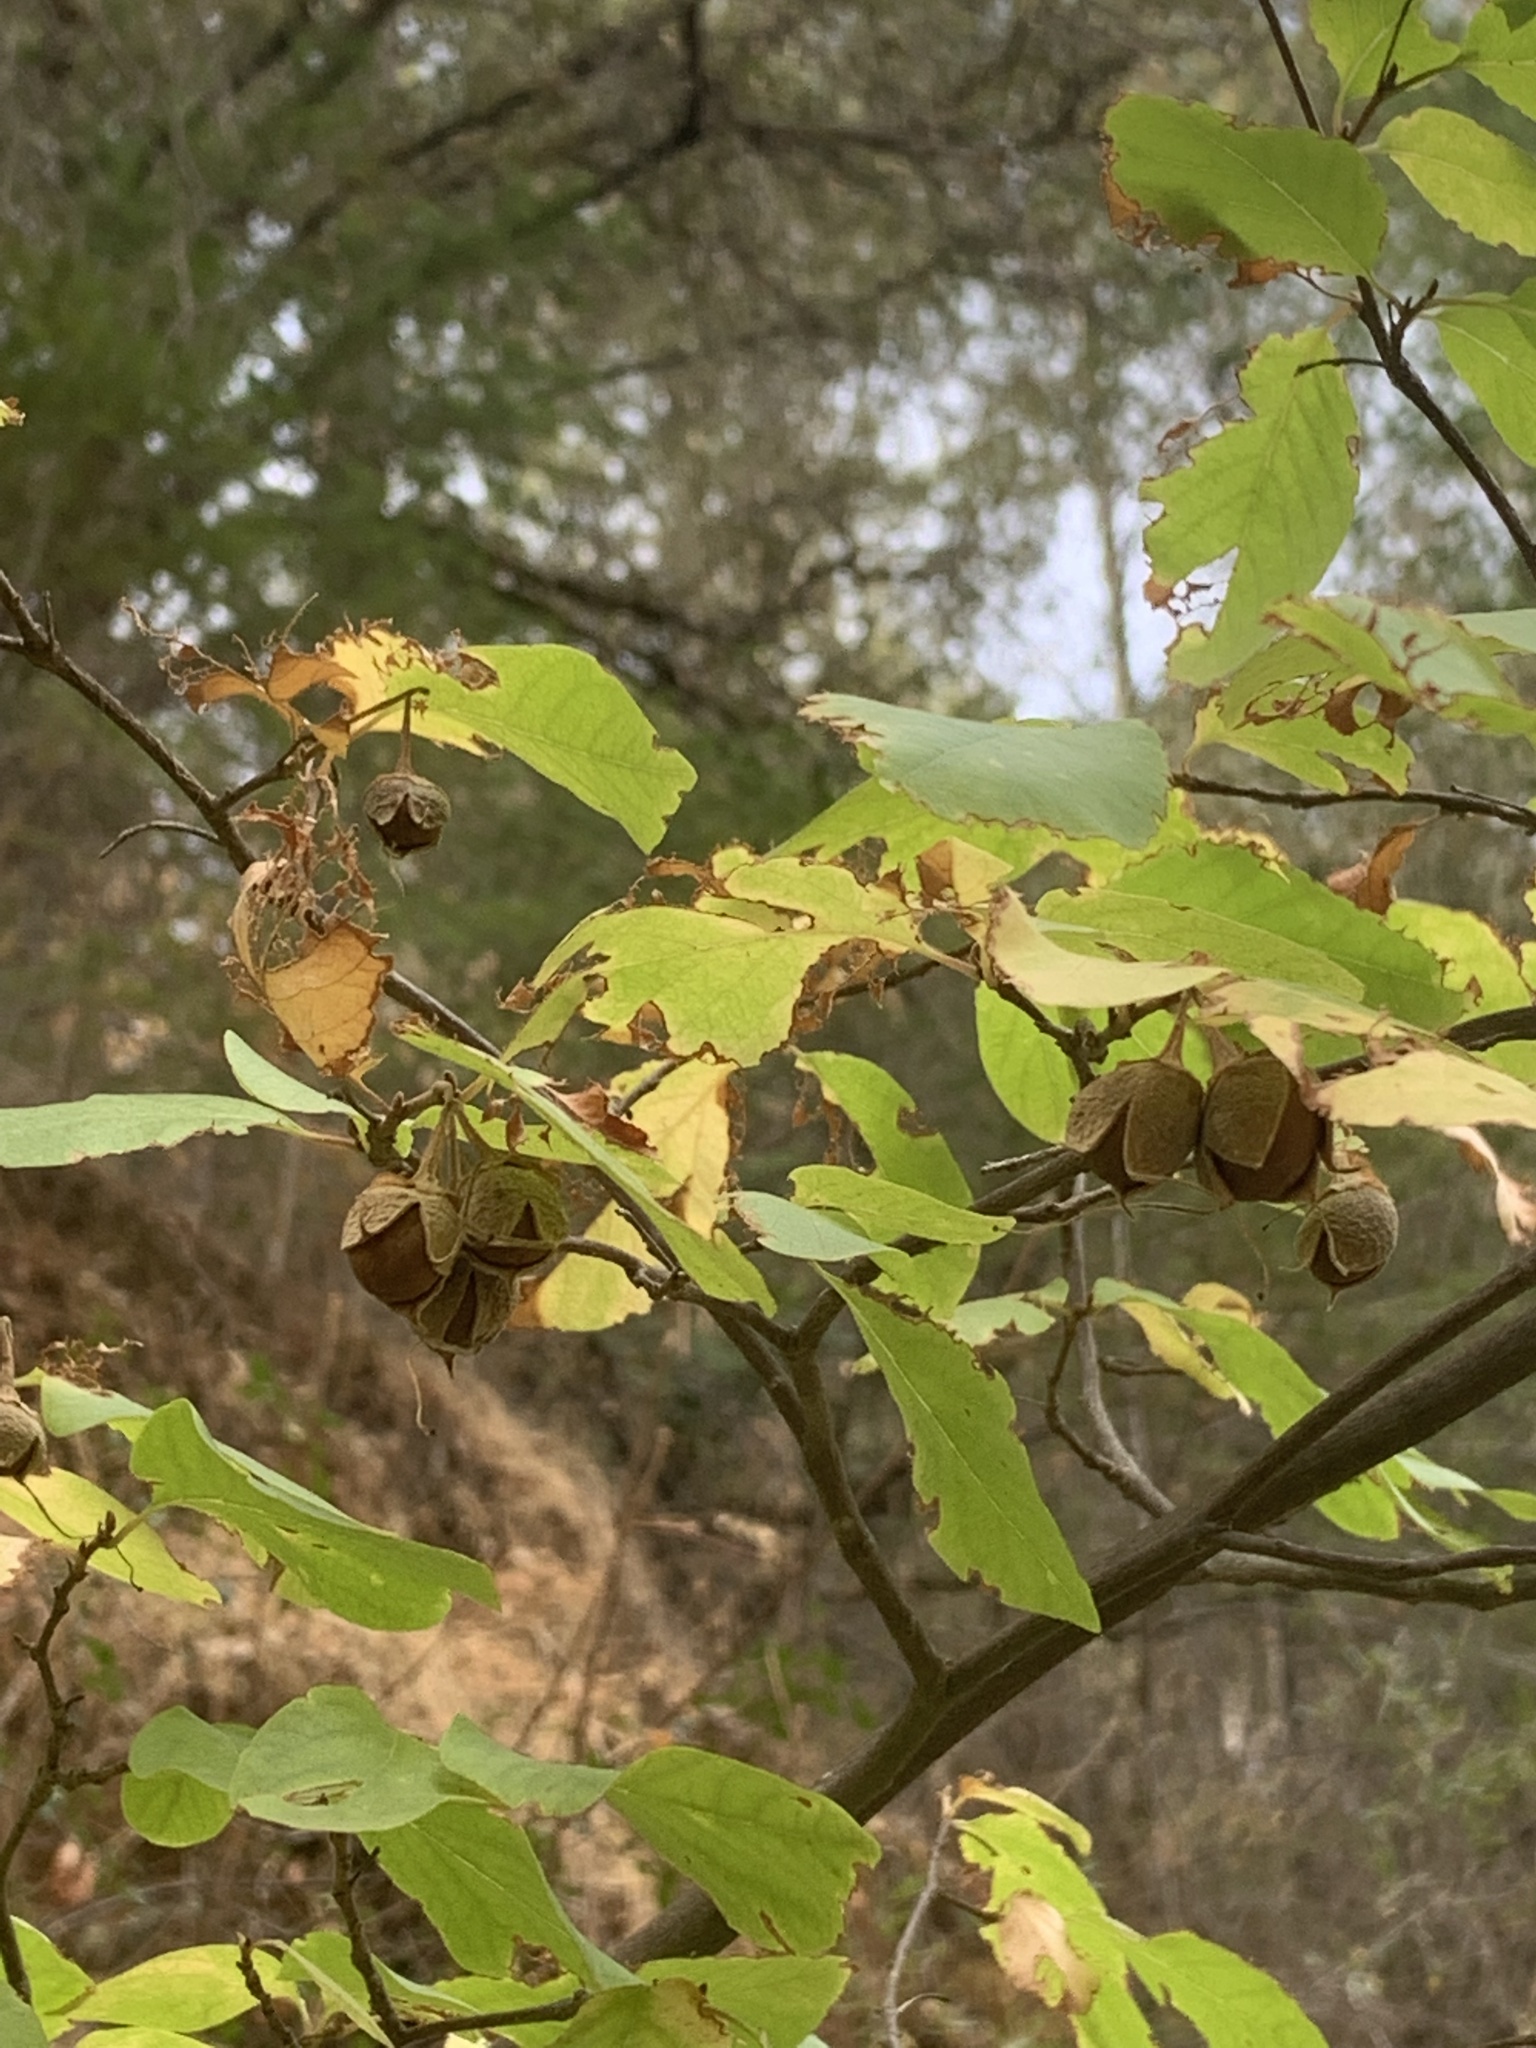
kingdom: Plantae
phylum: Tracheophyta
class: Magnoliopsida
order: Ericales
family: Styracaceae
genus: Styrax
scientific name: Styrax redivivus
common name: California styrax
